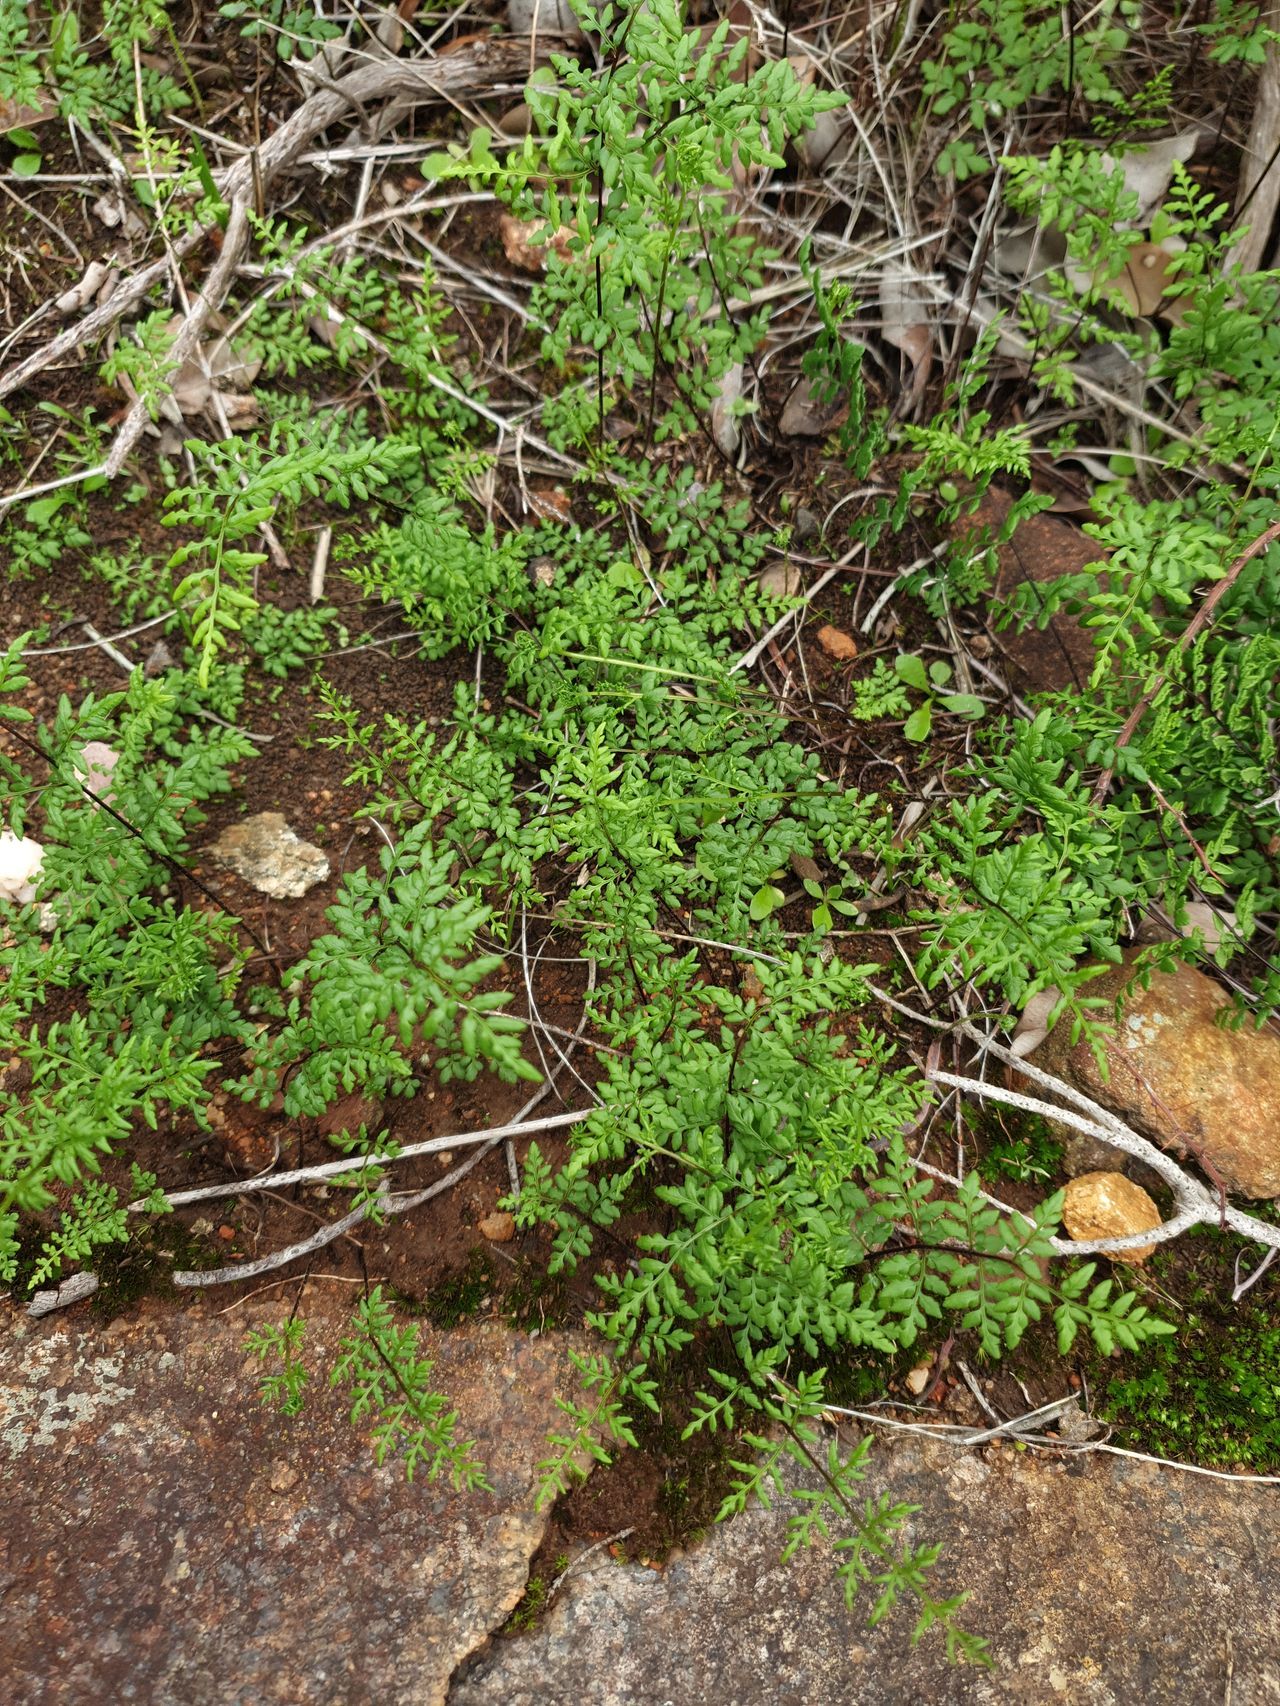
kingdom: Plantae
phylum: Tracheophyta
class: Polypodiopsida
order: Polypodiales
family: Pteridaceae
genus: Cheilanthes
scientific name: Cheilanthes austrotenuifolia
